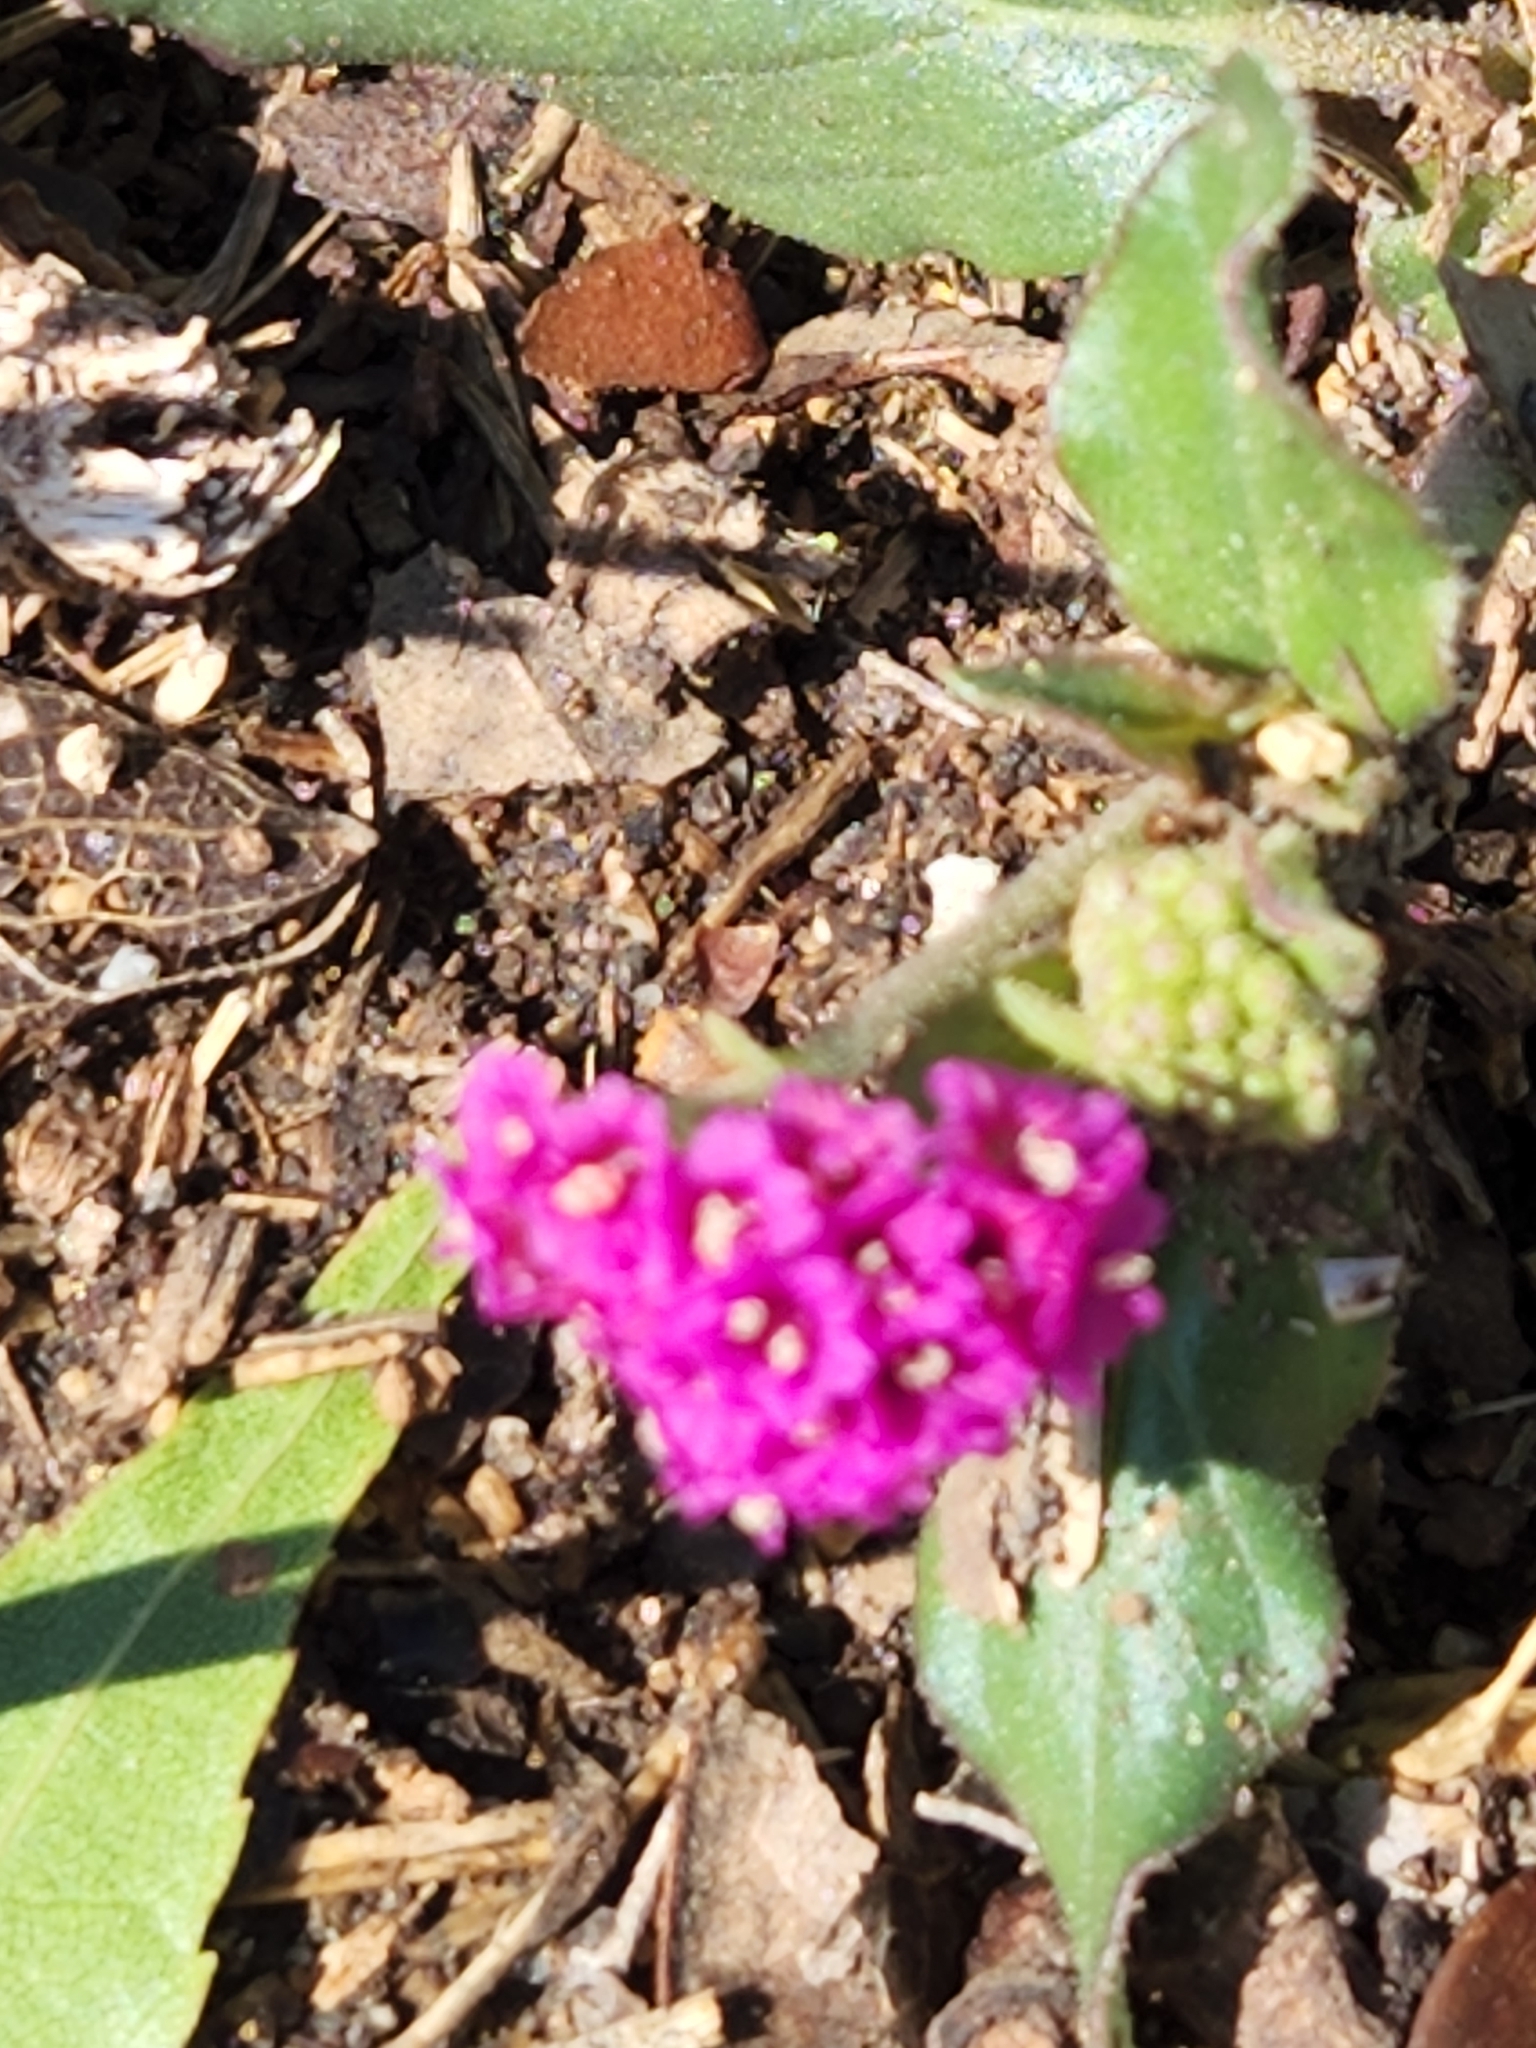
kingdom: Plantae
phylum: Tracheophyta
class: Magnoliopsida
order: Caryophyllales
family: Nyctaginaceae
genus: Boerhavia
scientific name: Boerhavia coccinea
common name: Scarlet spiderling
